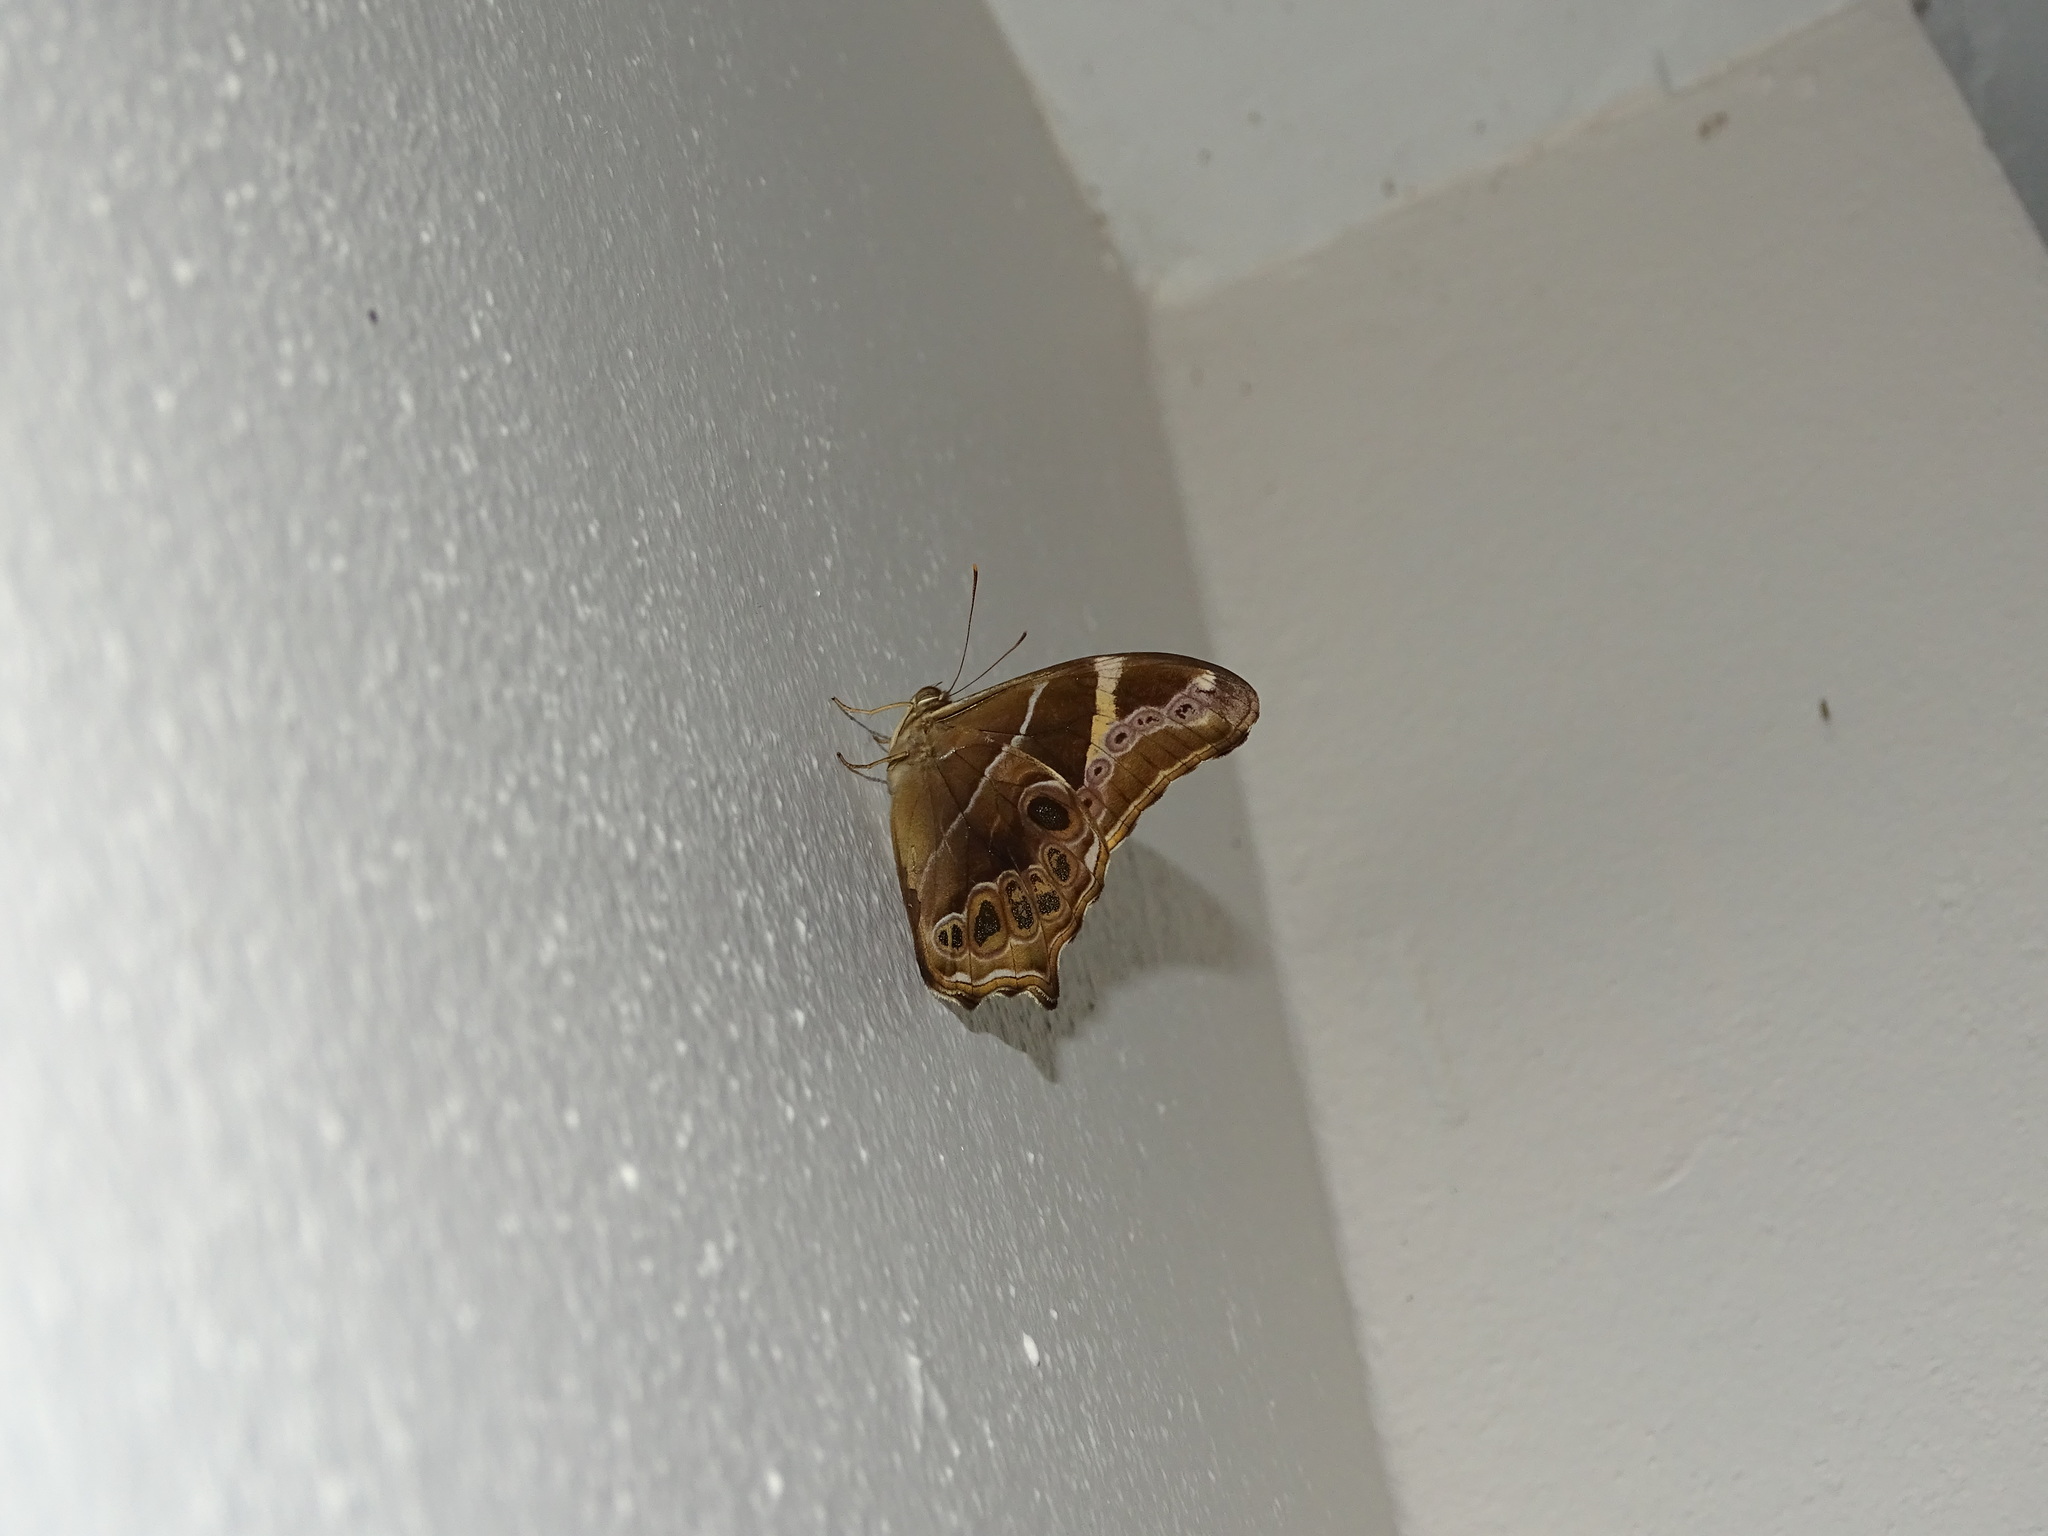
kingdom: Animalia
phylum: Arthropoda
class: Insecta
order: Lepidoptera
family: Nymphalidae
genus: Lethe
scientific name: Lethe europa
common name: Bamboo treebrown
